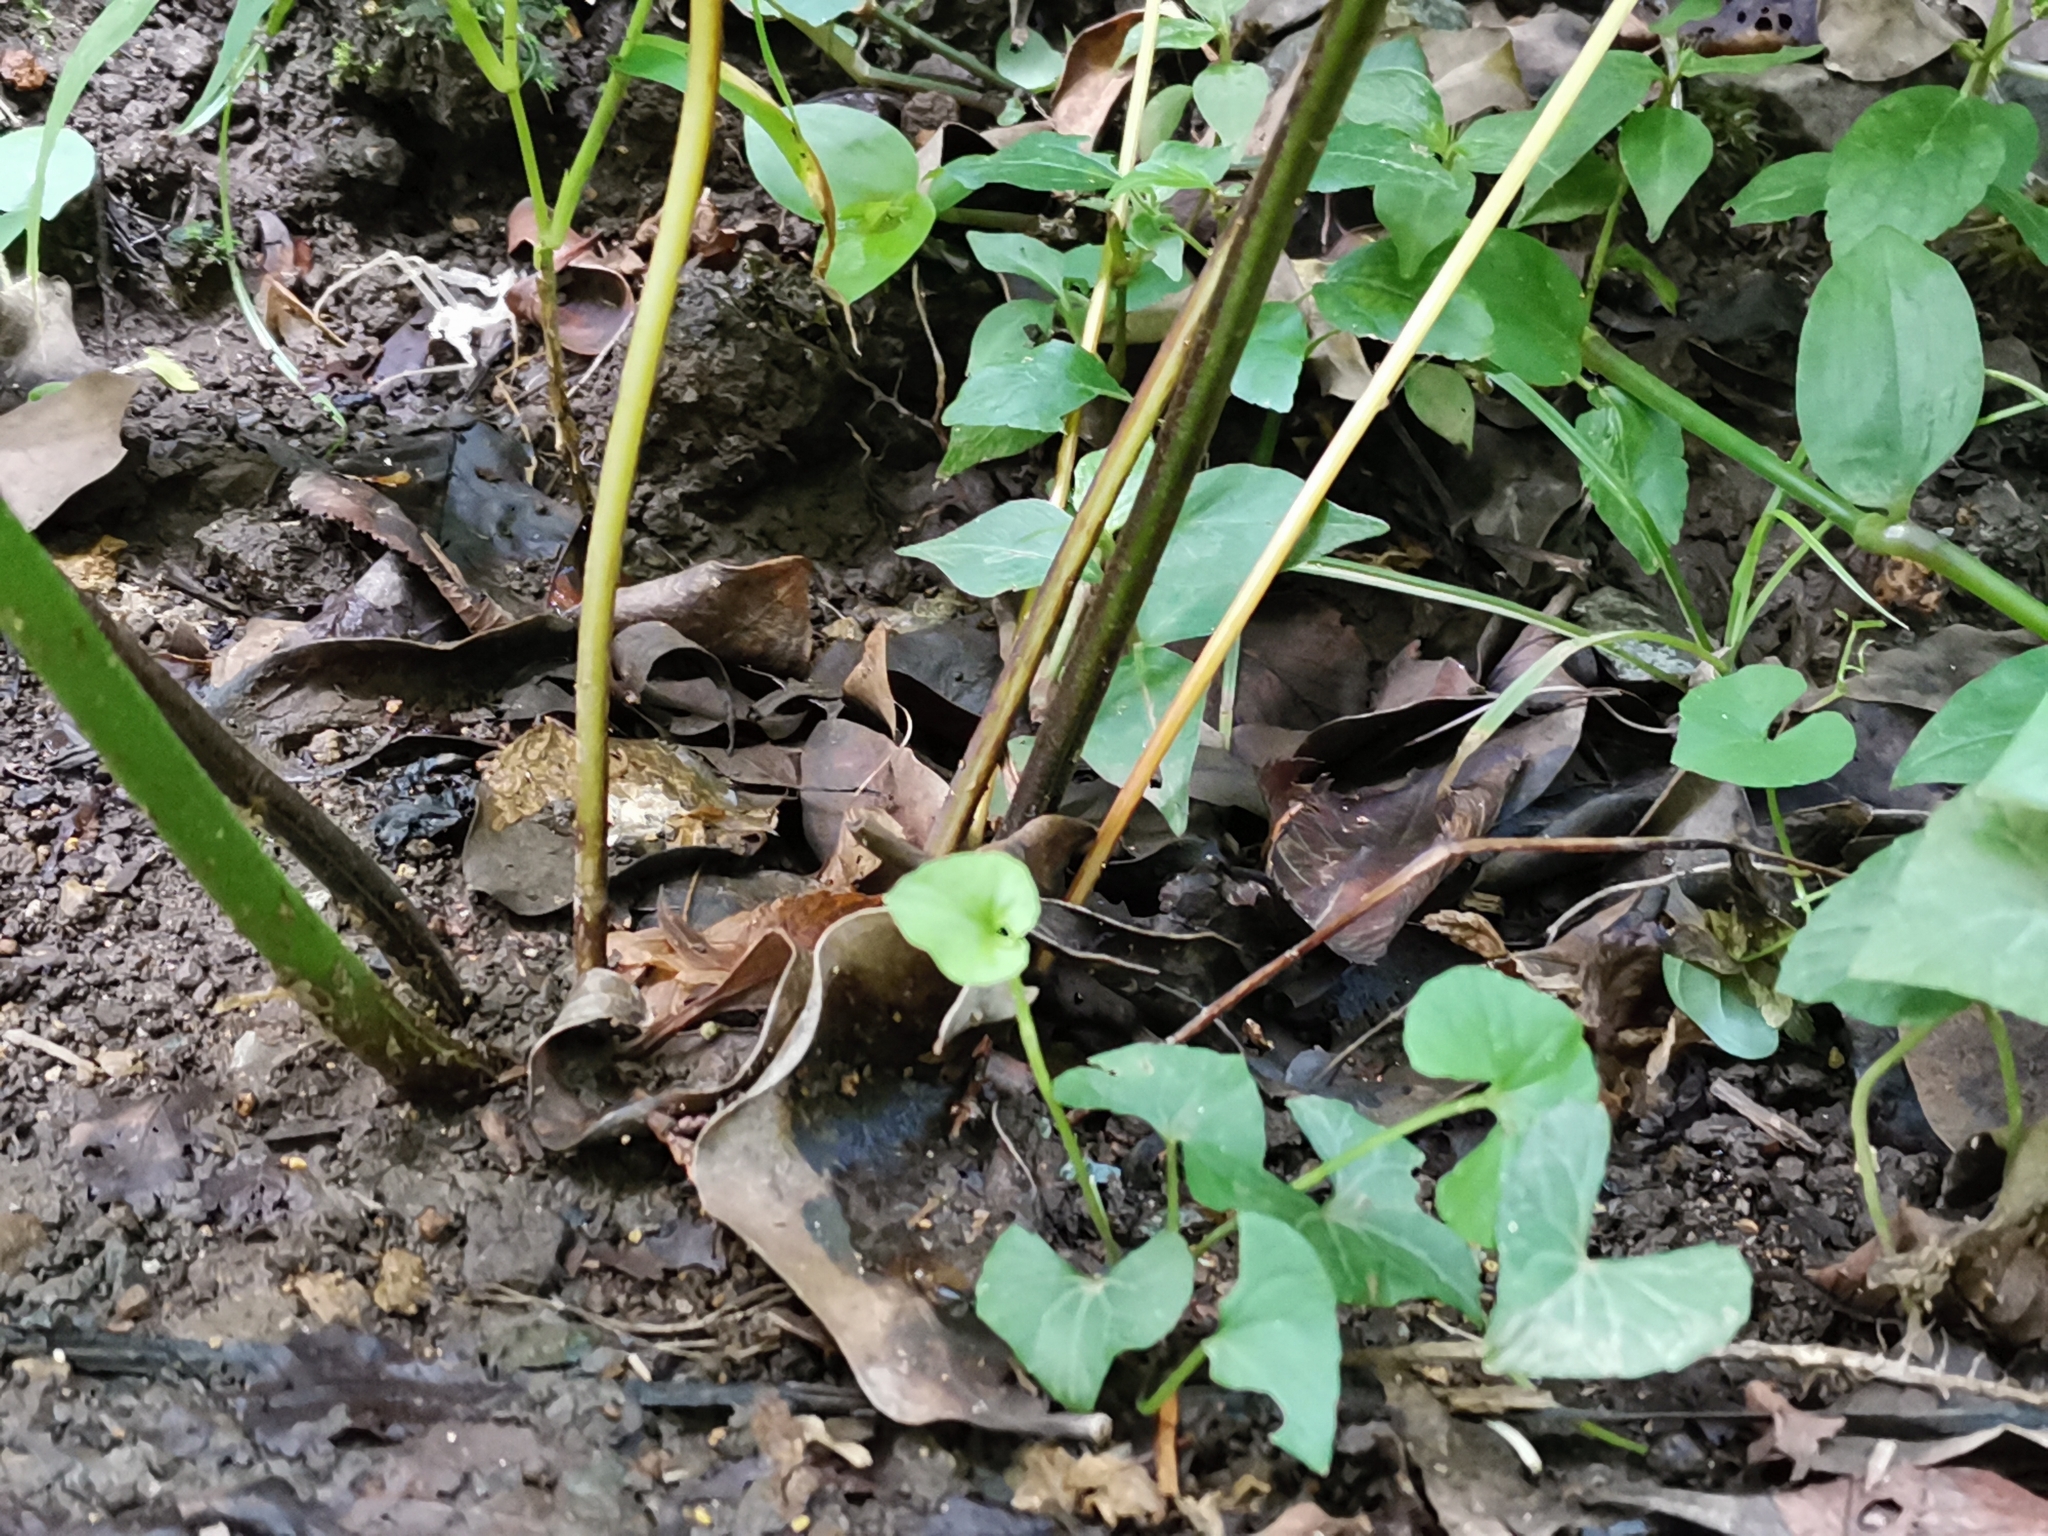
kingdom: Plantae
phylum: Tracheophyta
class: Polypodiopsida
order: Polypodiales
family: Pteridaceae
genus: Pteris
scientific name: Pteris wallichiana
